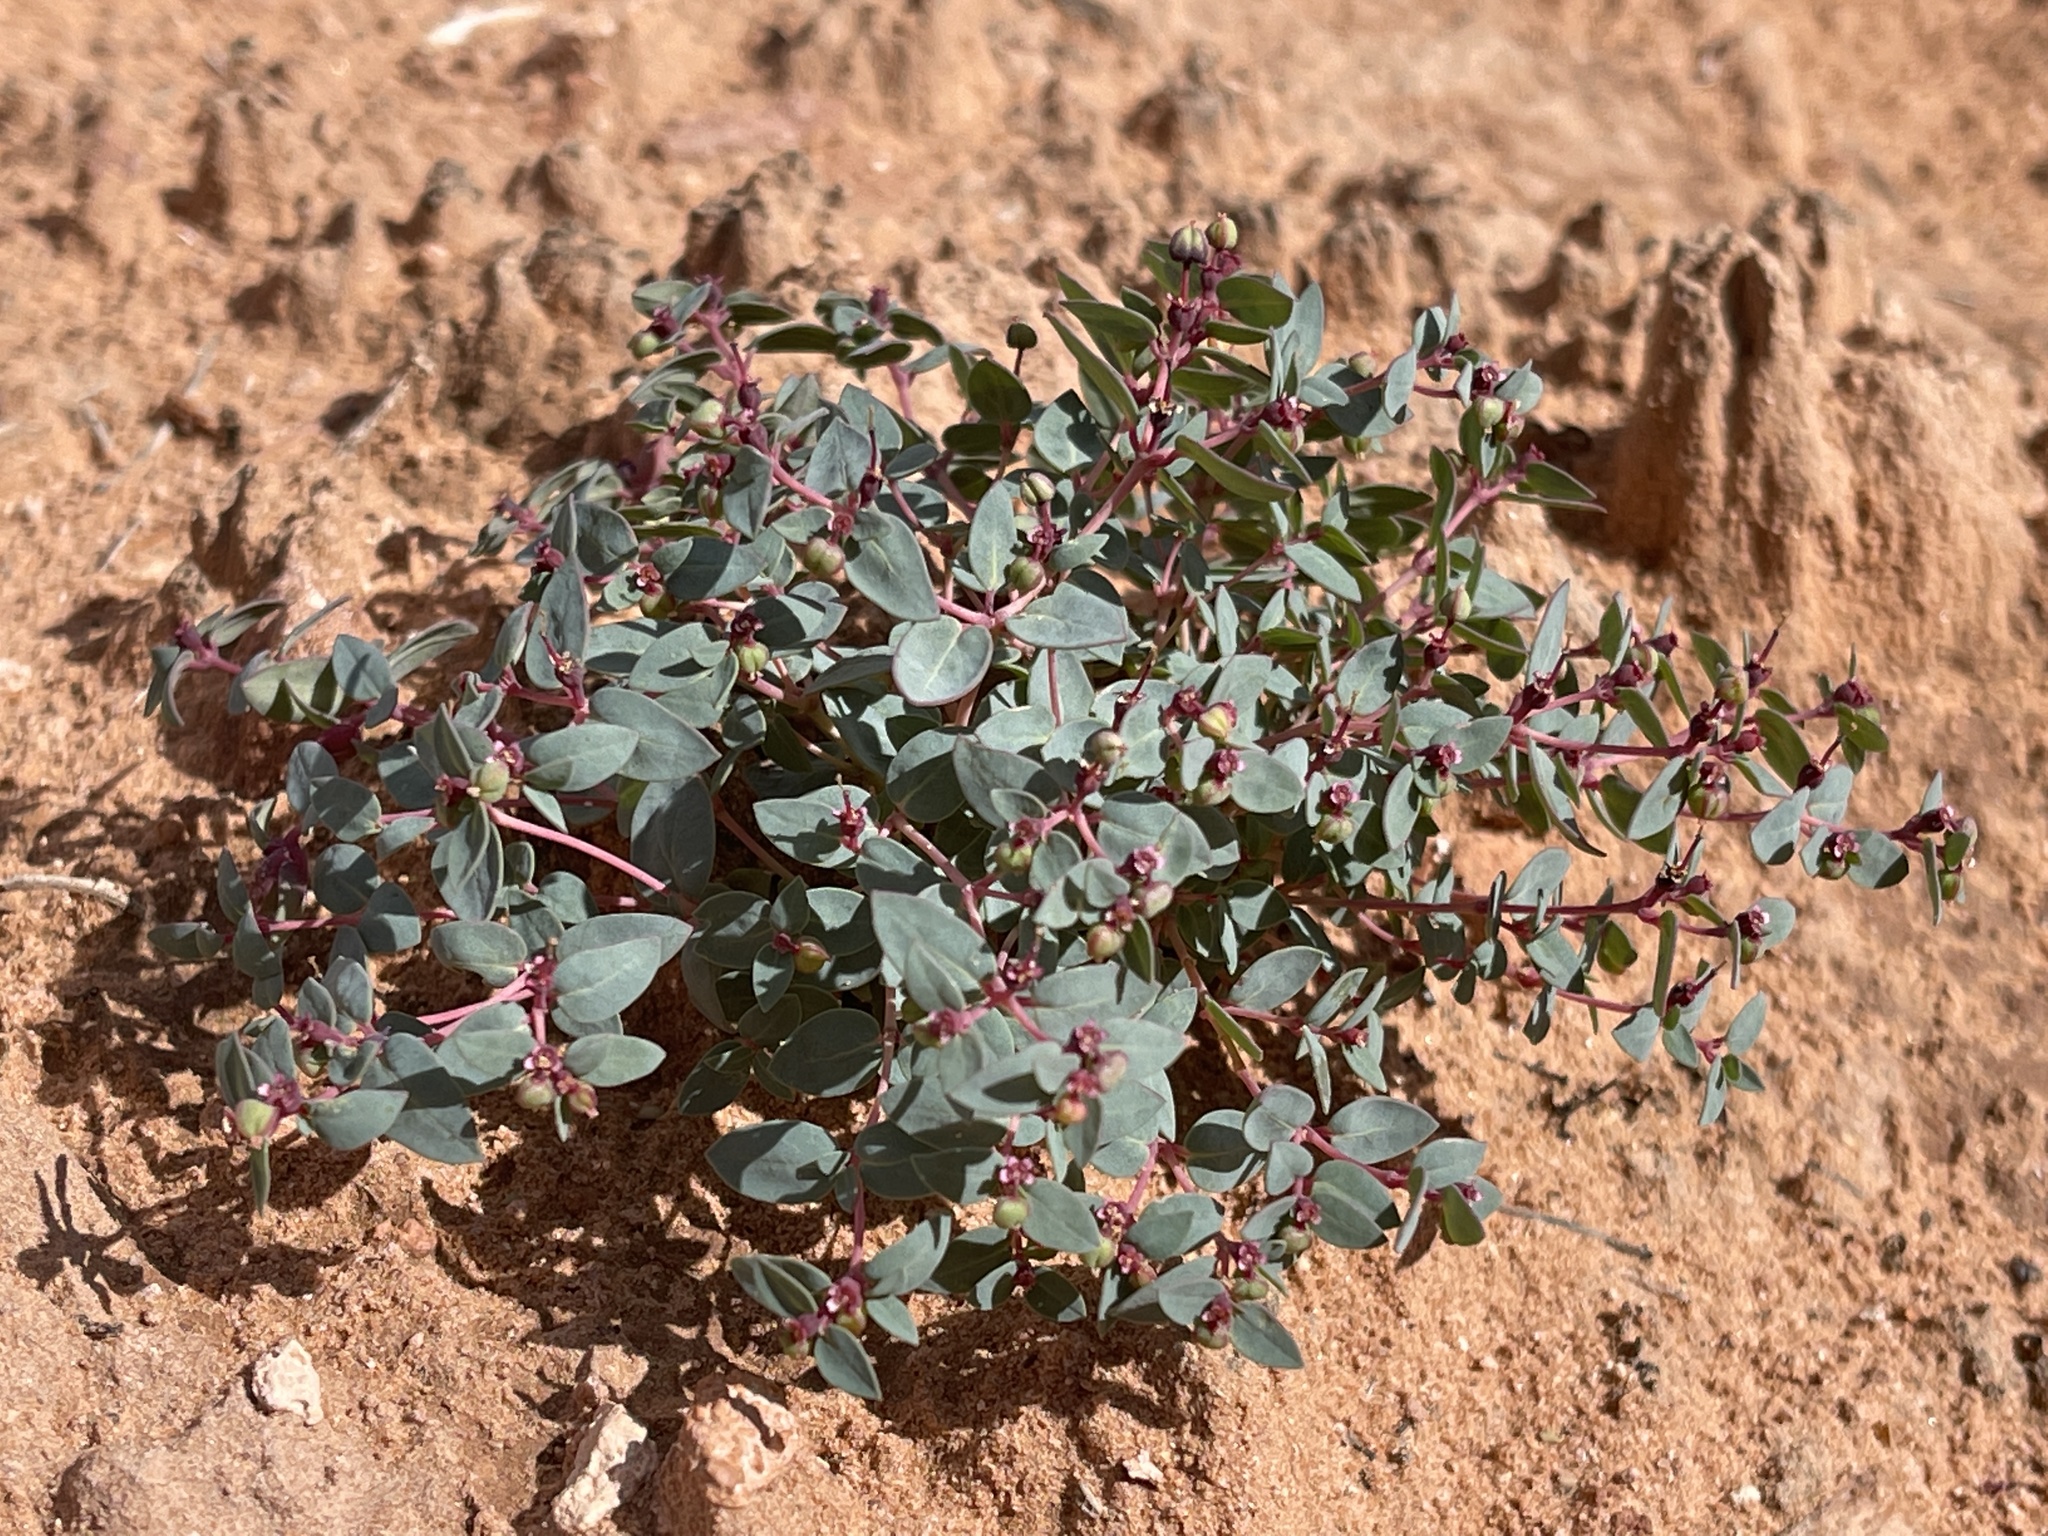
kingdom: Plantae
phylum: Tracheophyta
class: Magnoliopsida
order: Malpighiales
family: Euphorbiaceae
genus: Euphorbia
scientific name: Euphorbia fendleri
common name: Fendler's euphorbia
